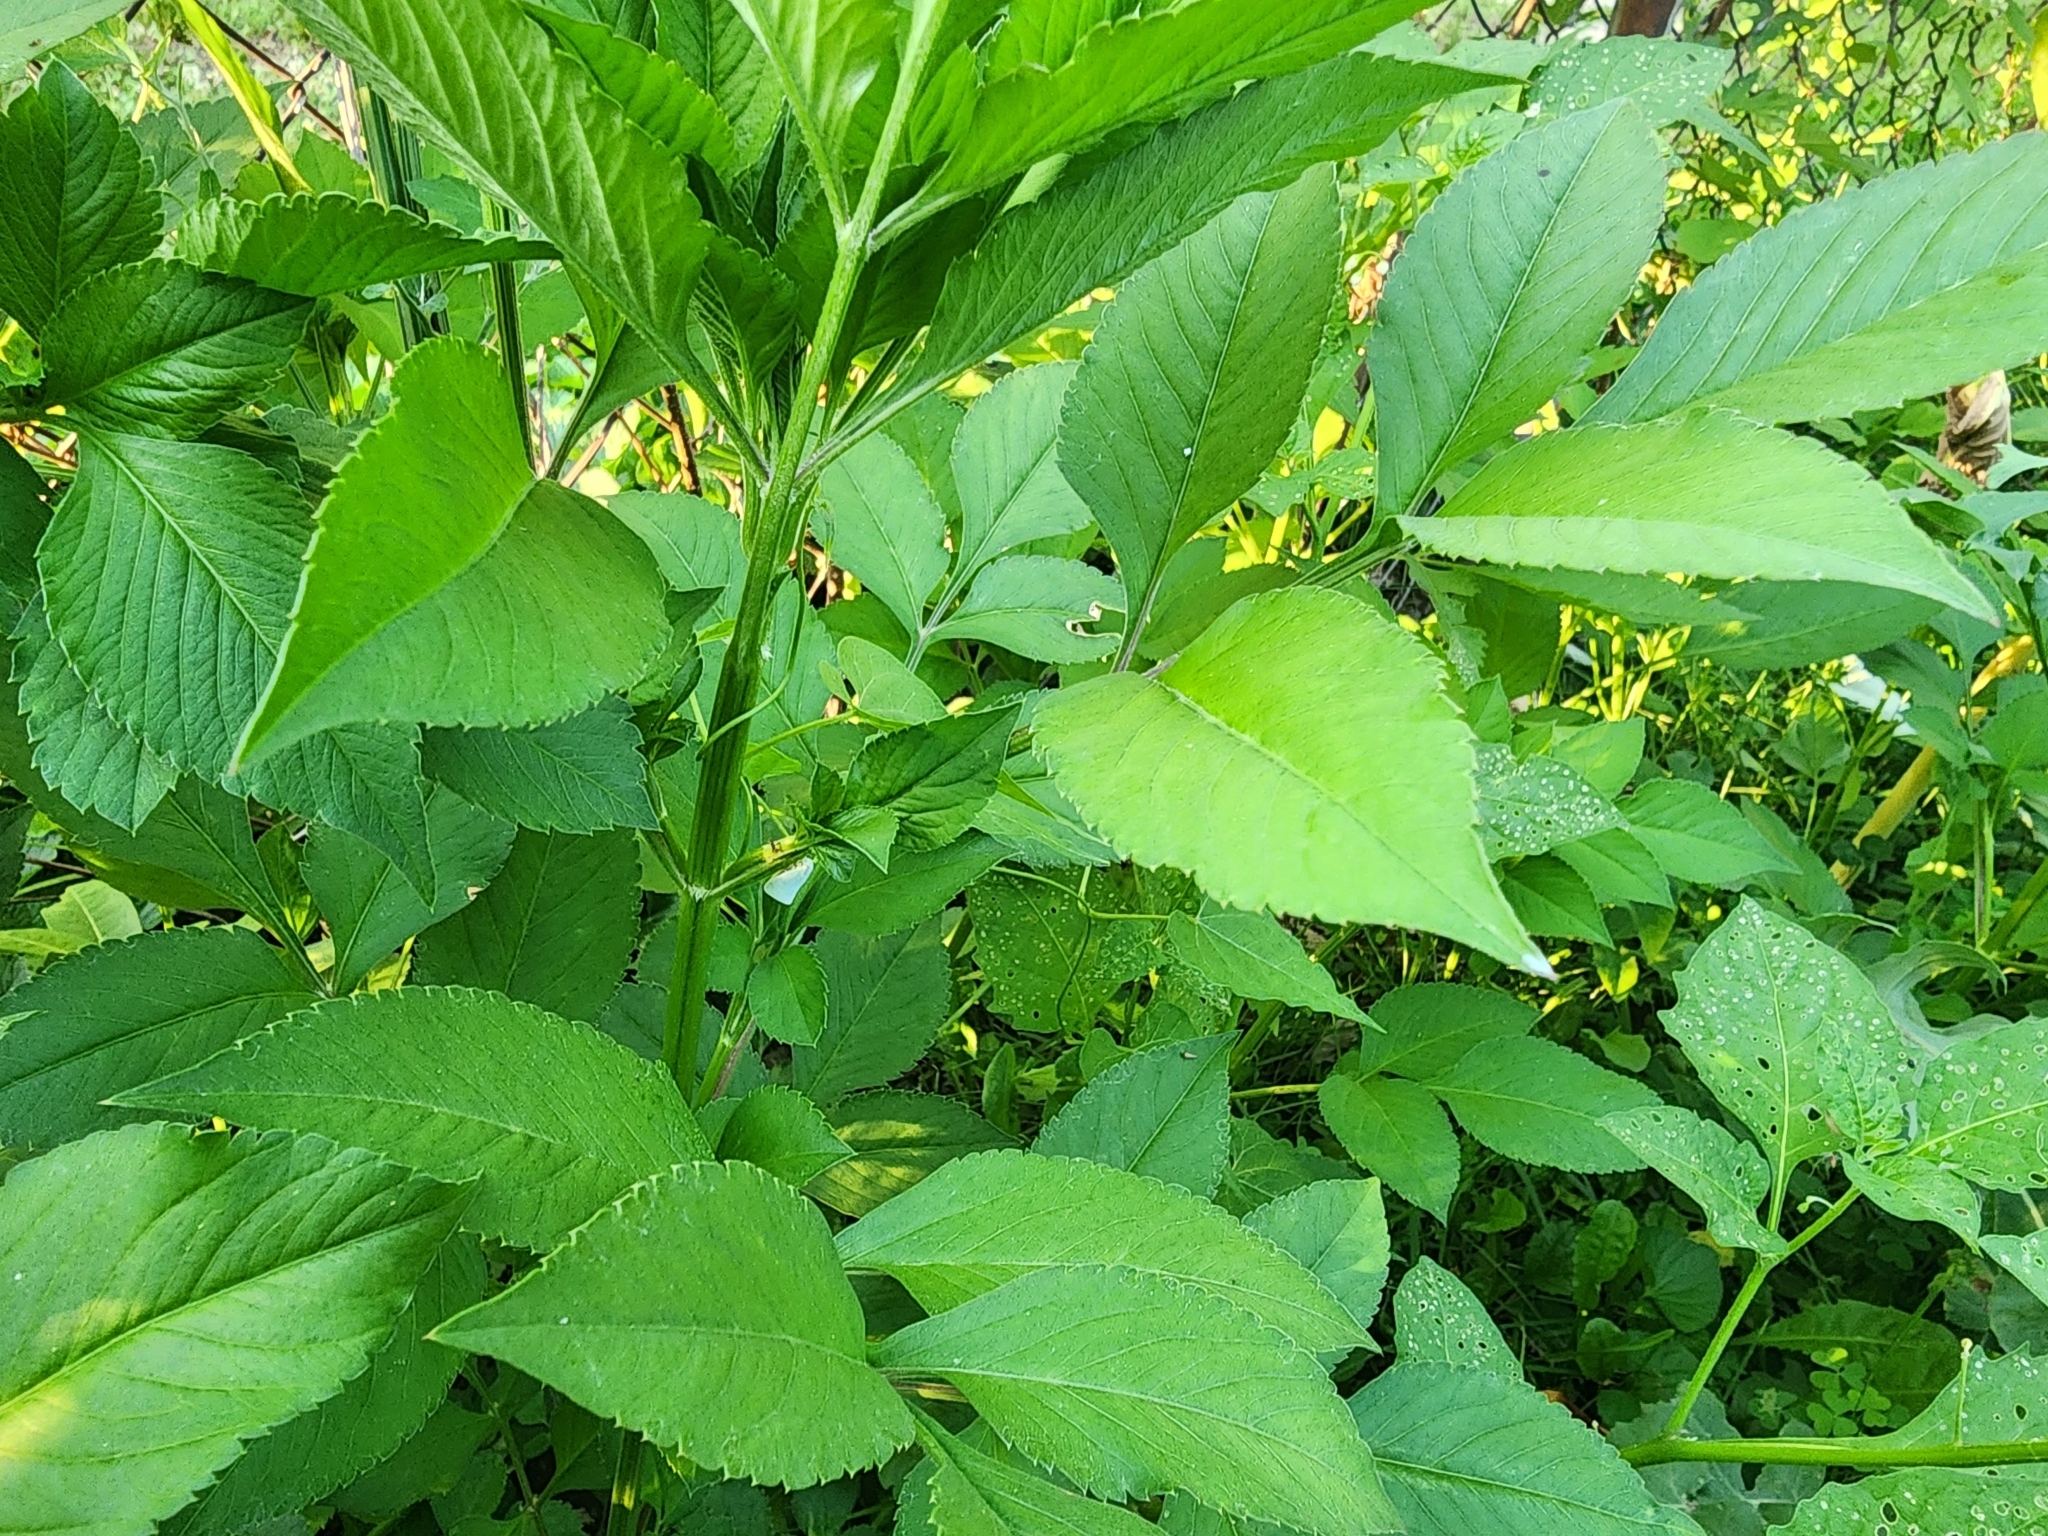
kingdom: Animalia
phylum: Arthropoda
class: Insecta
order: Hemiptera
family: Flatidae
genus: Flatormenis
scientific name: Flatormenis proxima
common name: Northern flatid planthopper
